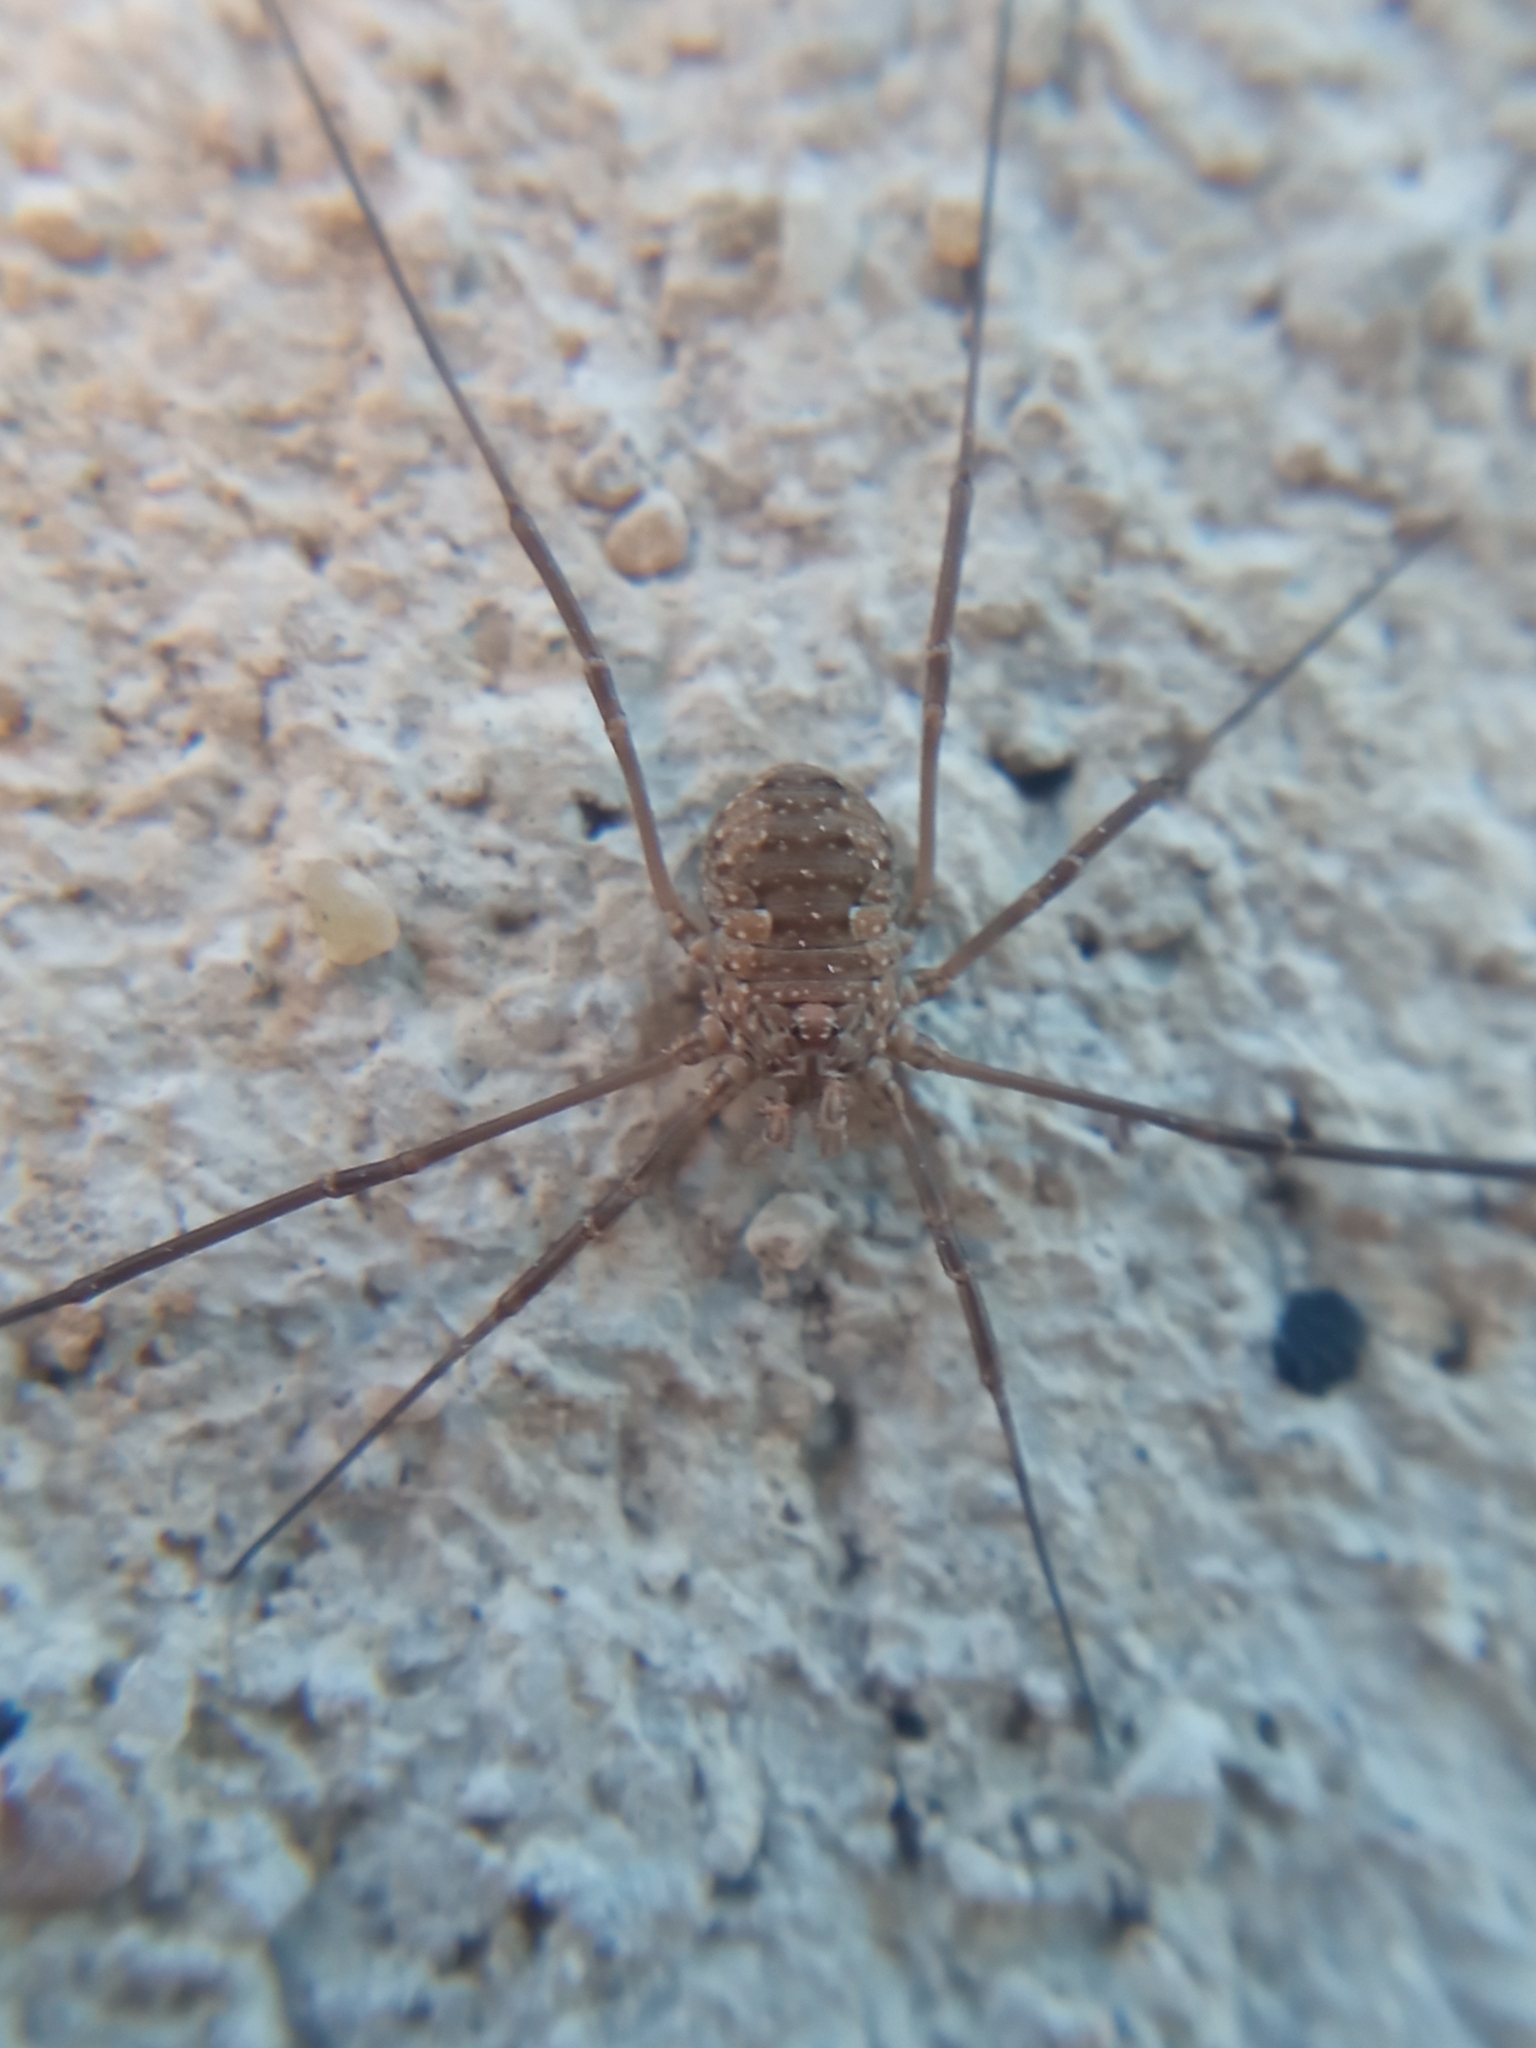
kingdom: Animalia
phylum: Arthropoda
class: Arachnida
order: Opiliones
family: Phalangiidae
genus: Phalangium
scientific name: Phalangium opilio
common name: Daddy longleg
